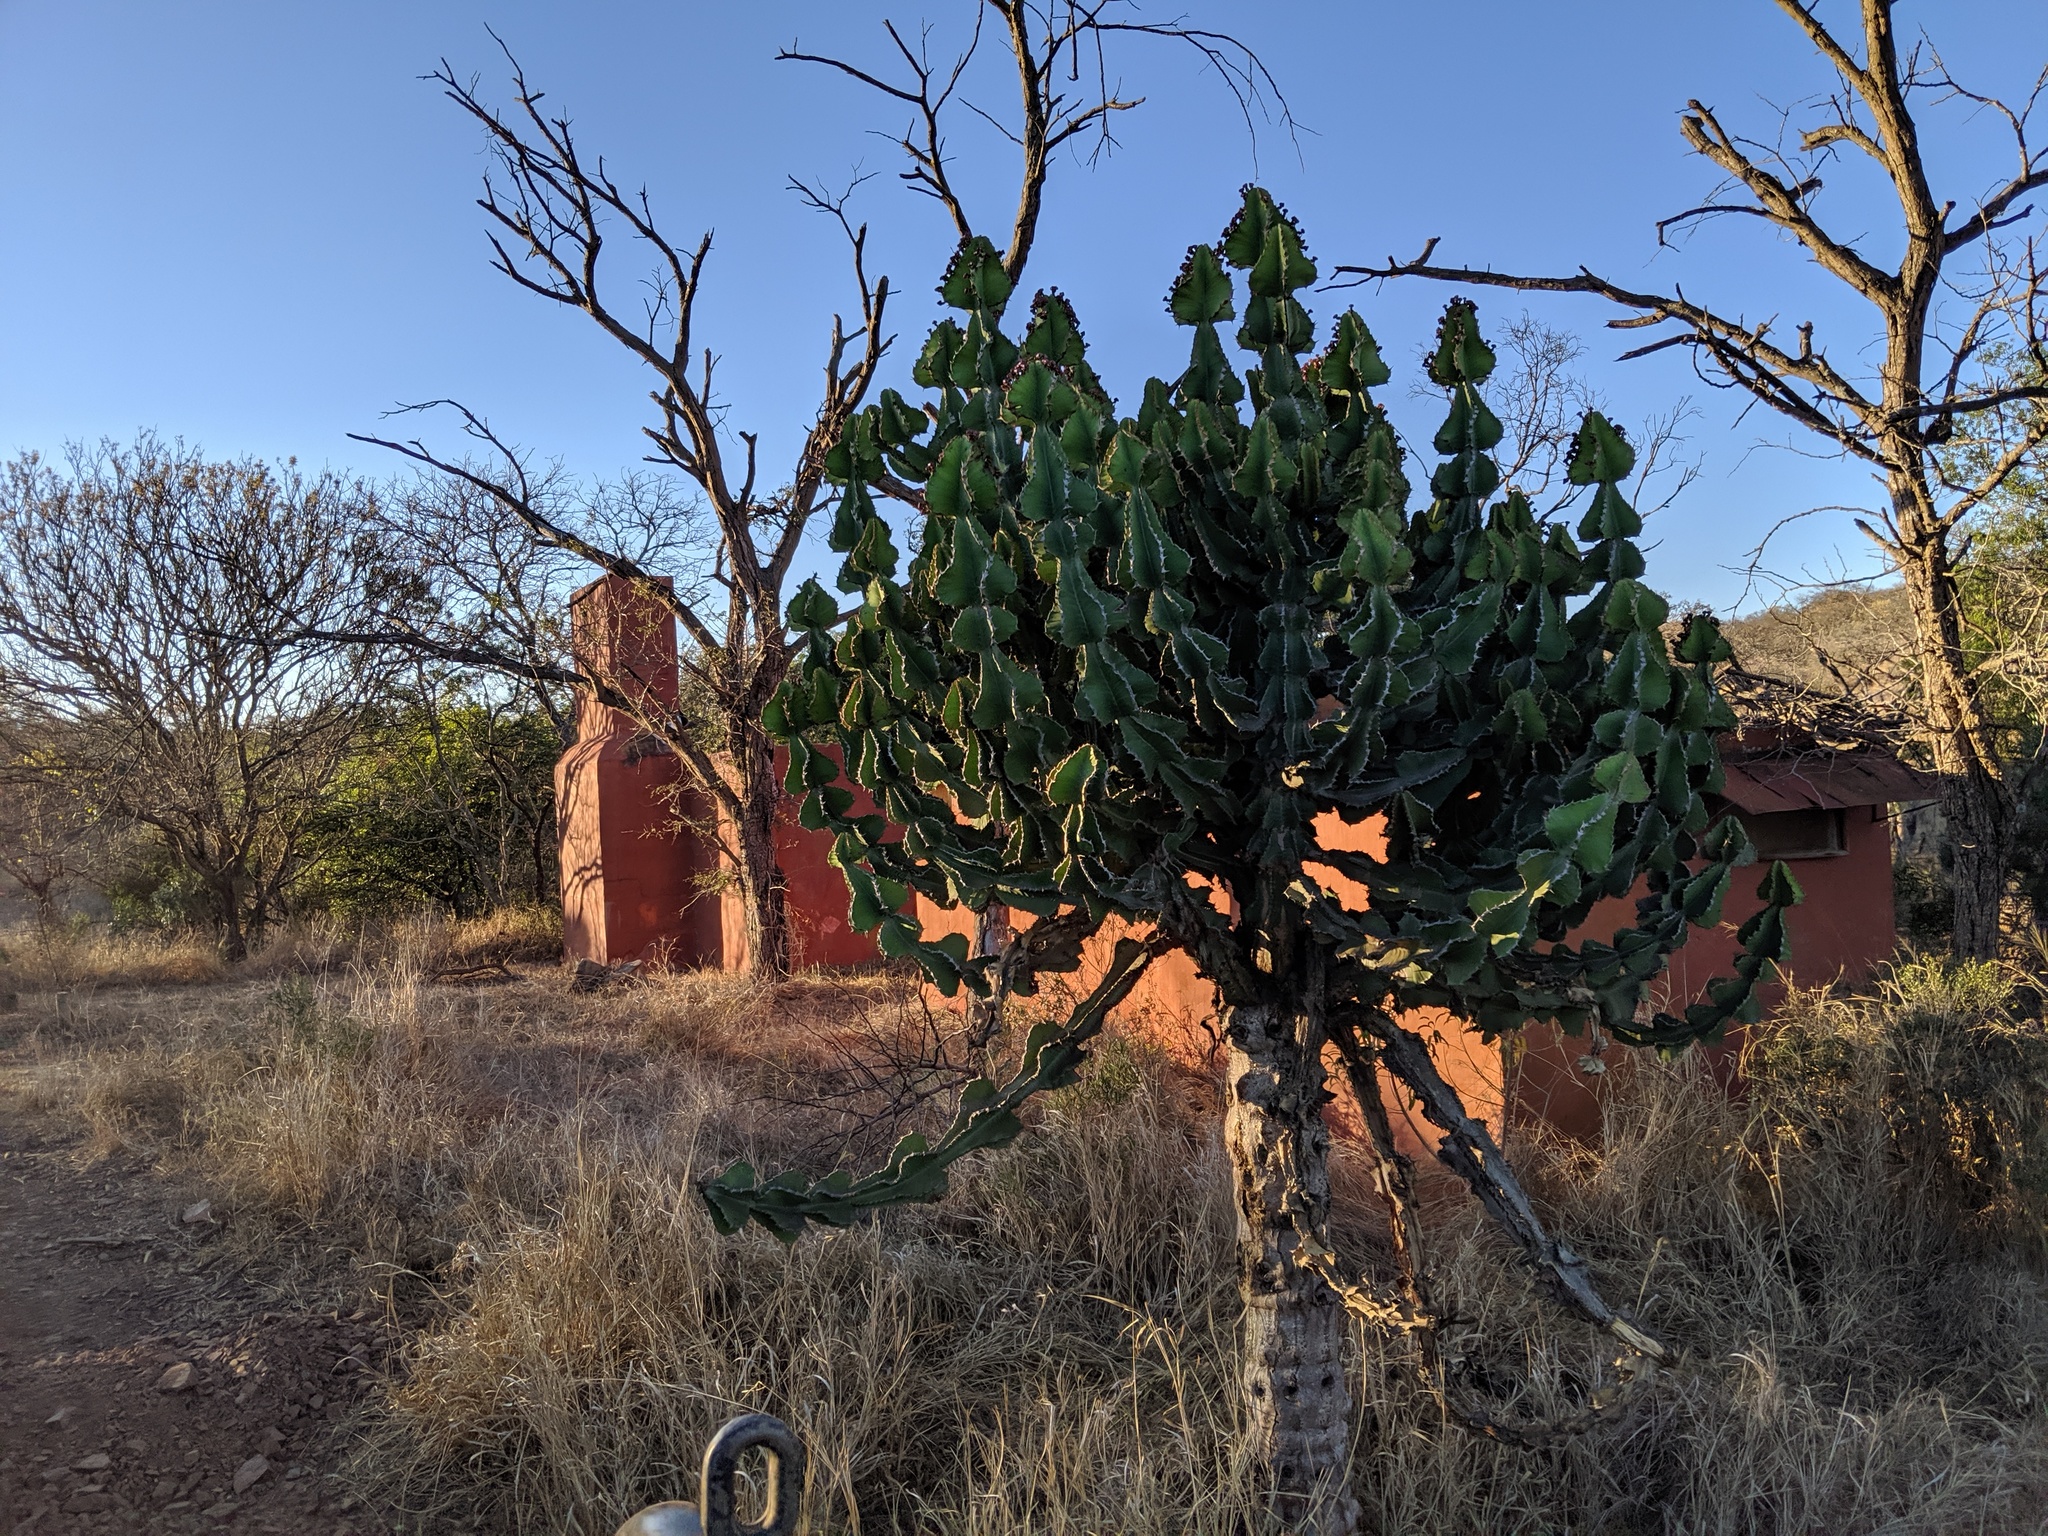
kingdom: Plantae
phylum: Tracheophyta
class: Magnoliopsida
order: Malpighiales
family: Euphorbiaceae
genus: Euphorbia
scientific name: Euphorbia cooperi
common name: Candelabra tree
